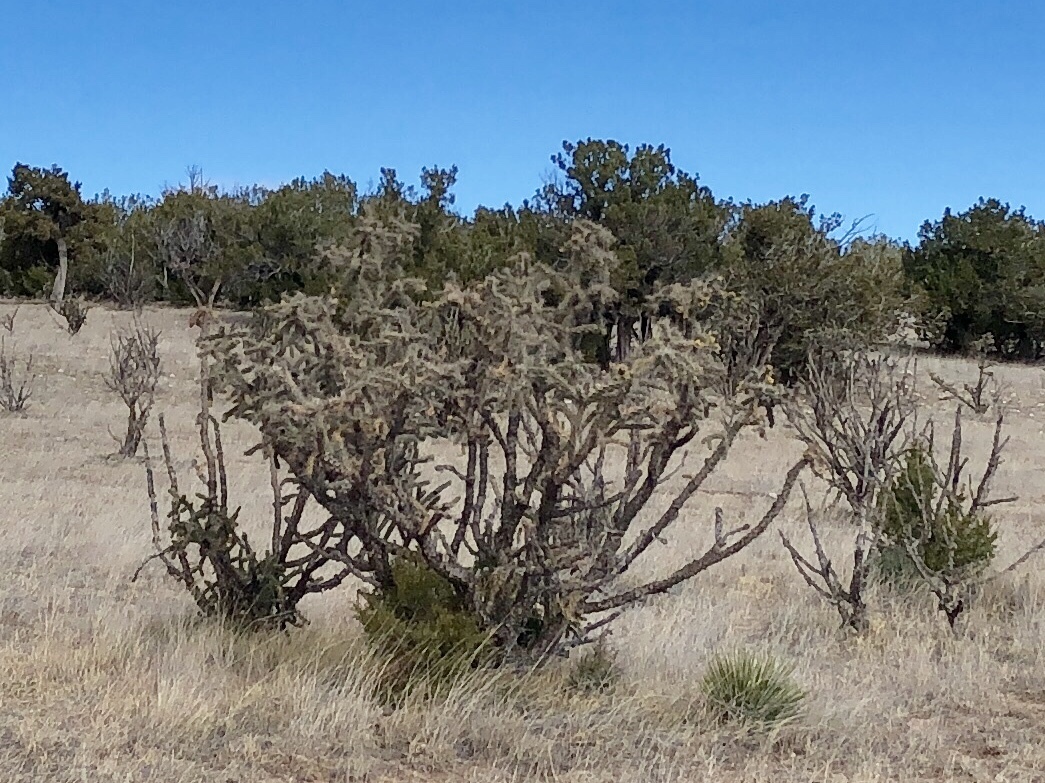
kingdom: Plantae
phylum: Tracheophyta
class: Magnoliopsida
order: Caryophyllales
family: Cactaceae
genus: Cylindropuntia
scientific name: Cylindropuntia imbricata
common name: Candelabrum cactus
